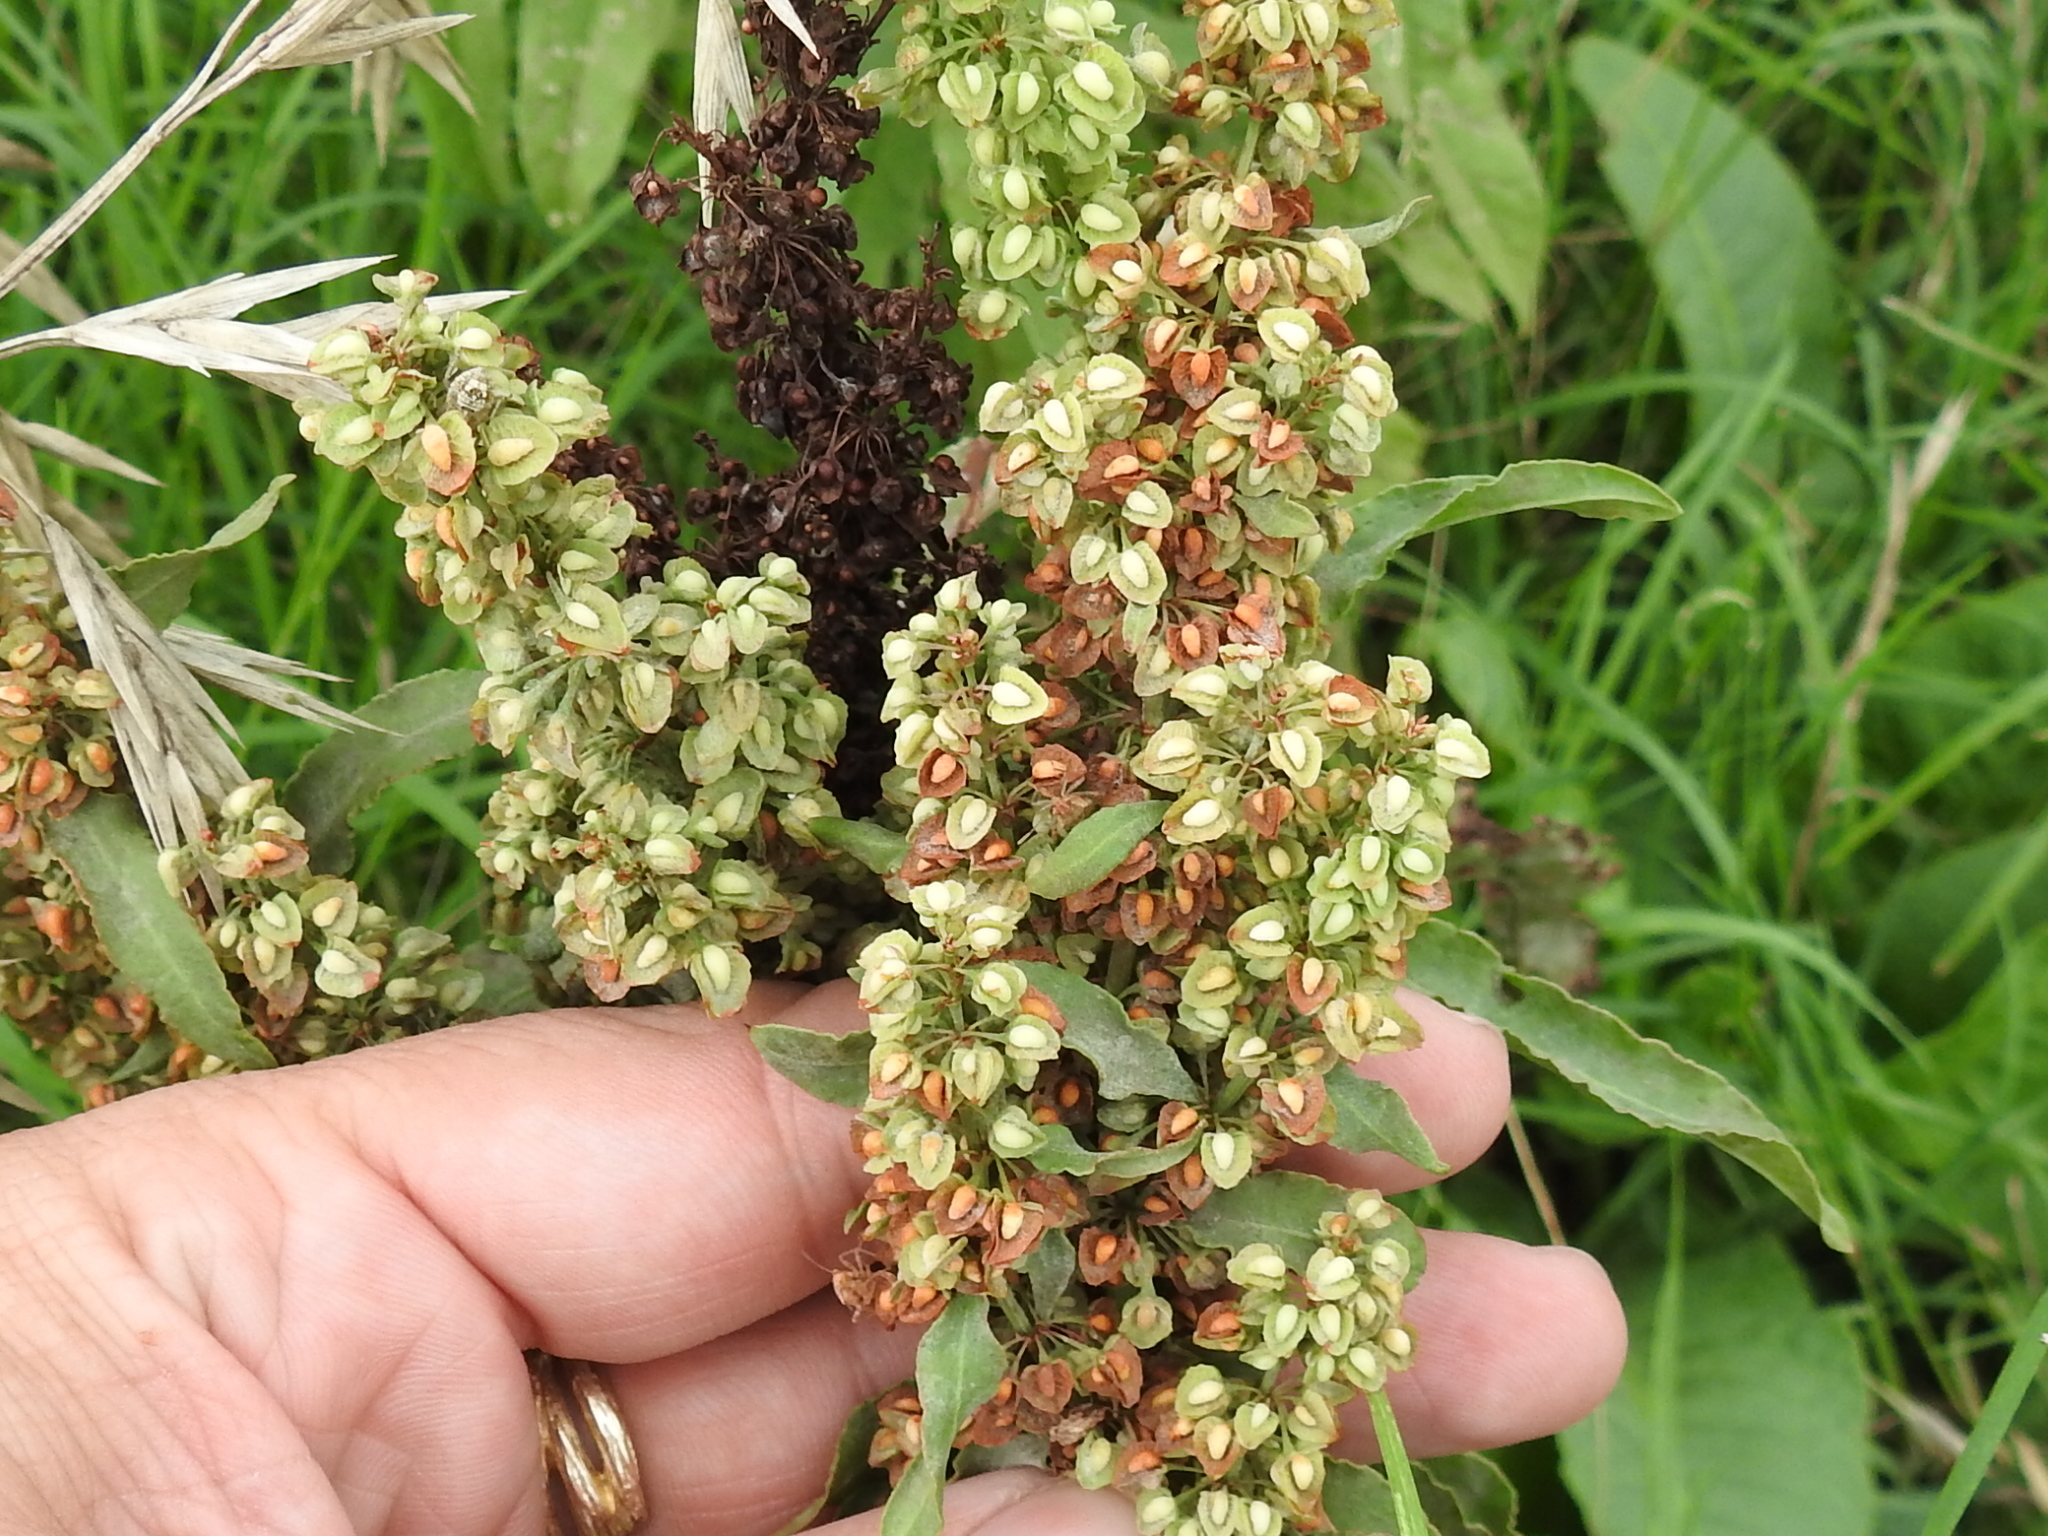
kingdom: Plantae
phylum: Tracheophyta
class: Magnoliopsida
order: Caryophyllales
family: Polygonaceae
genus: Rumex
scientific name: Rumex crispus
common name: Curled dock
